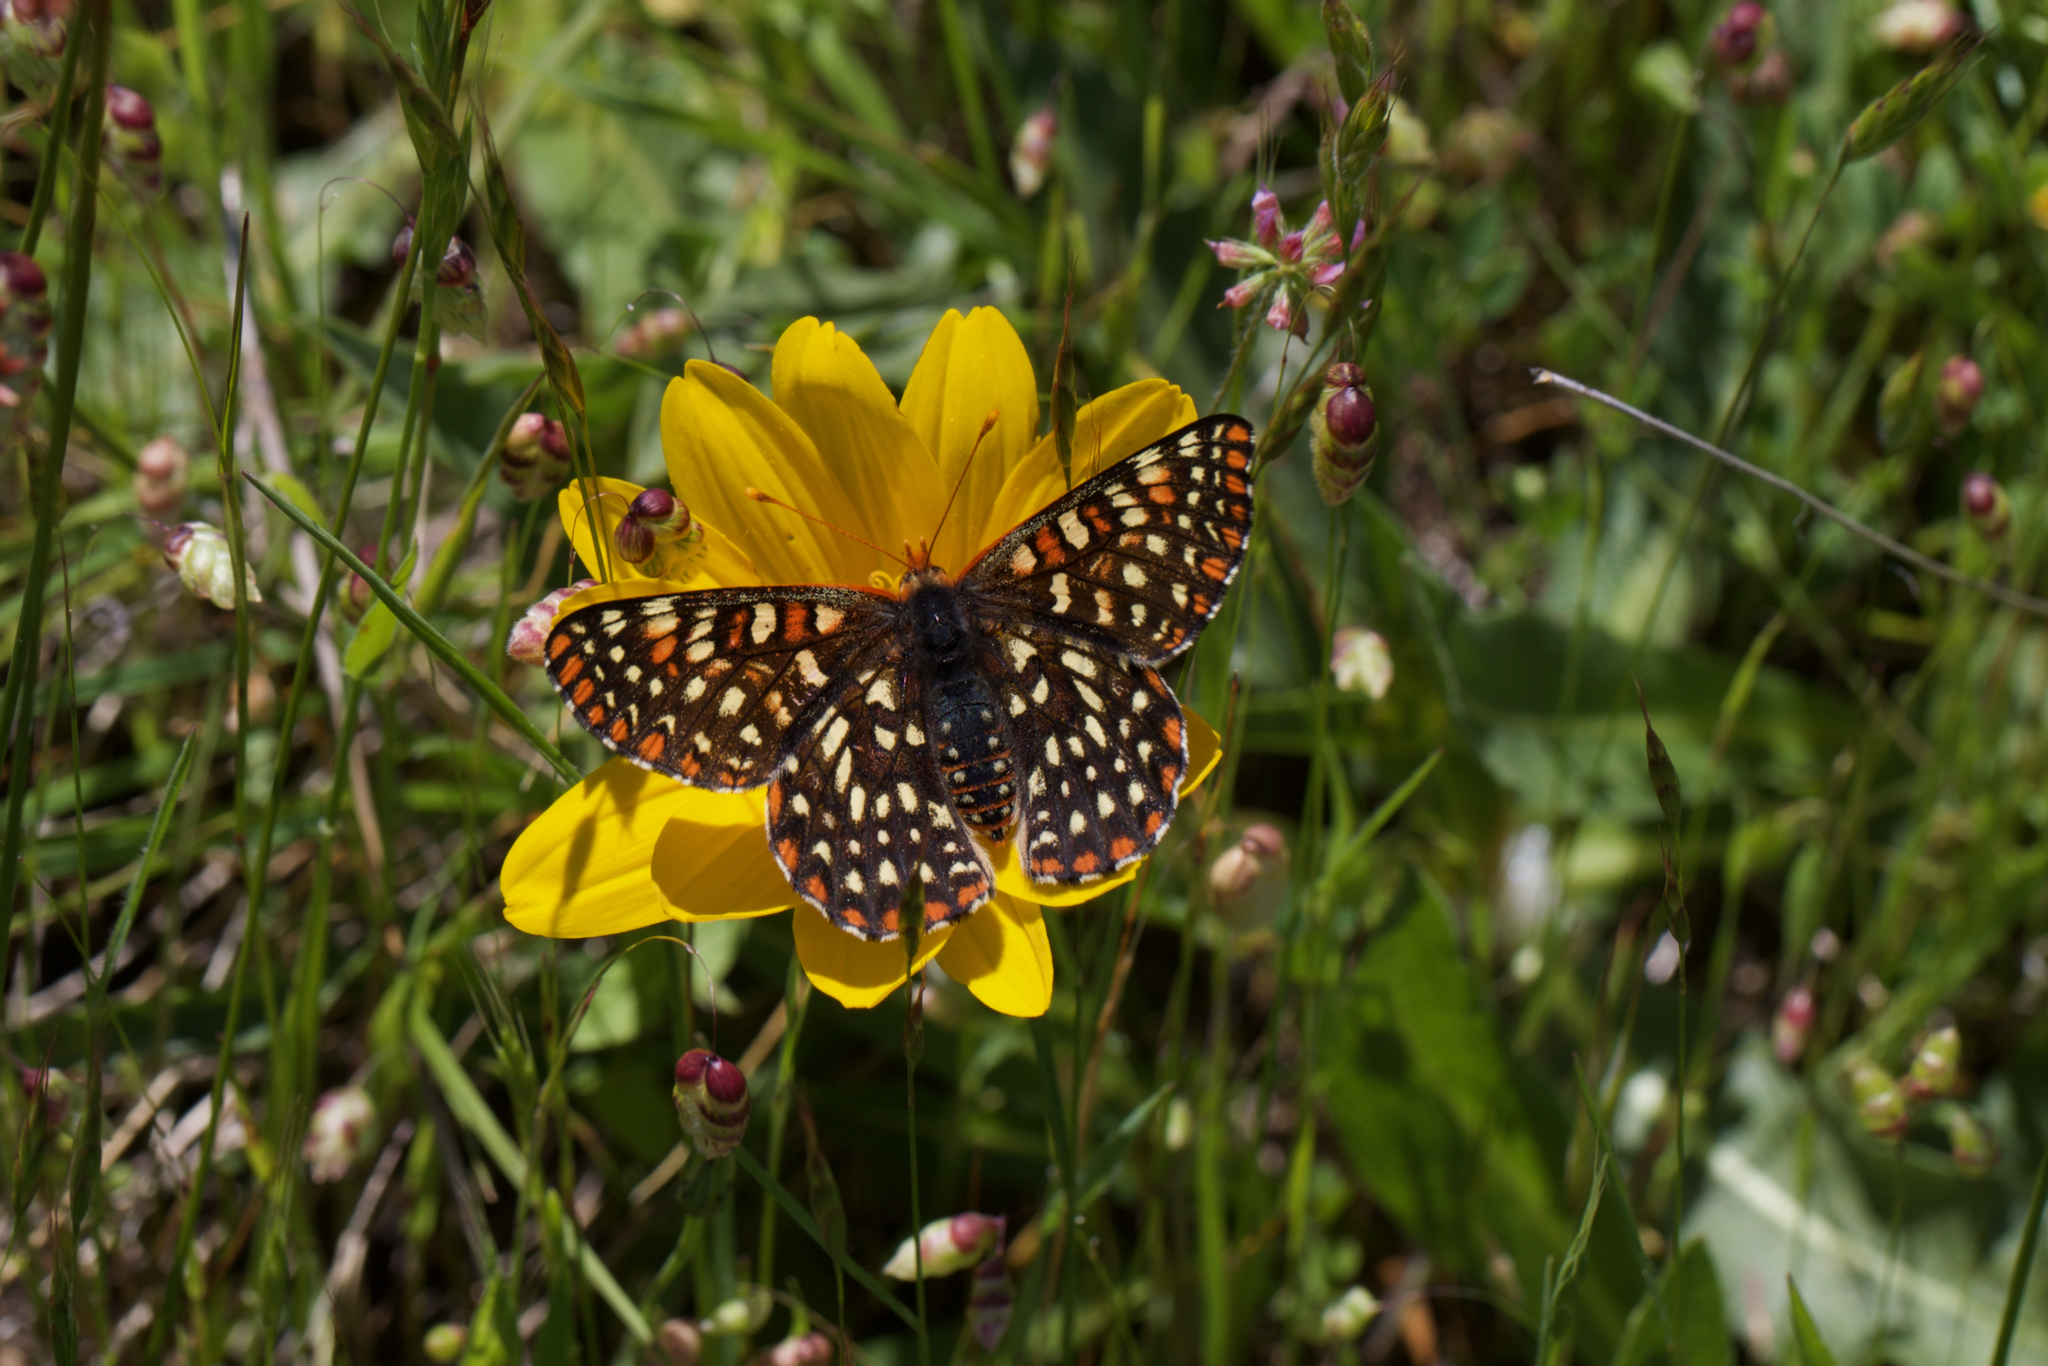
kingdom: Animalia
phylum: Arthropoda
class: Insecta
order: Lepidoptera
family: Nymphalidae
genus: Occidryas
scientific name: Occidryas chalcedona
